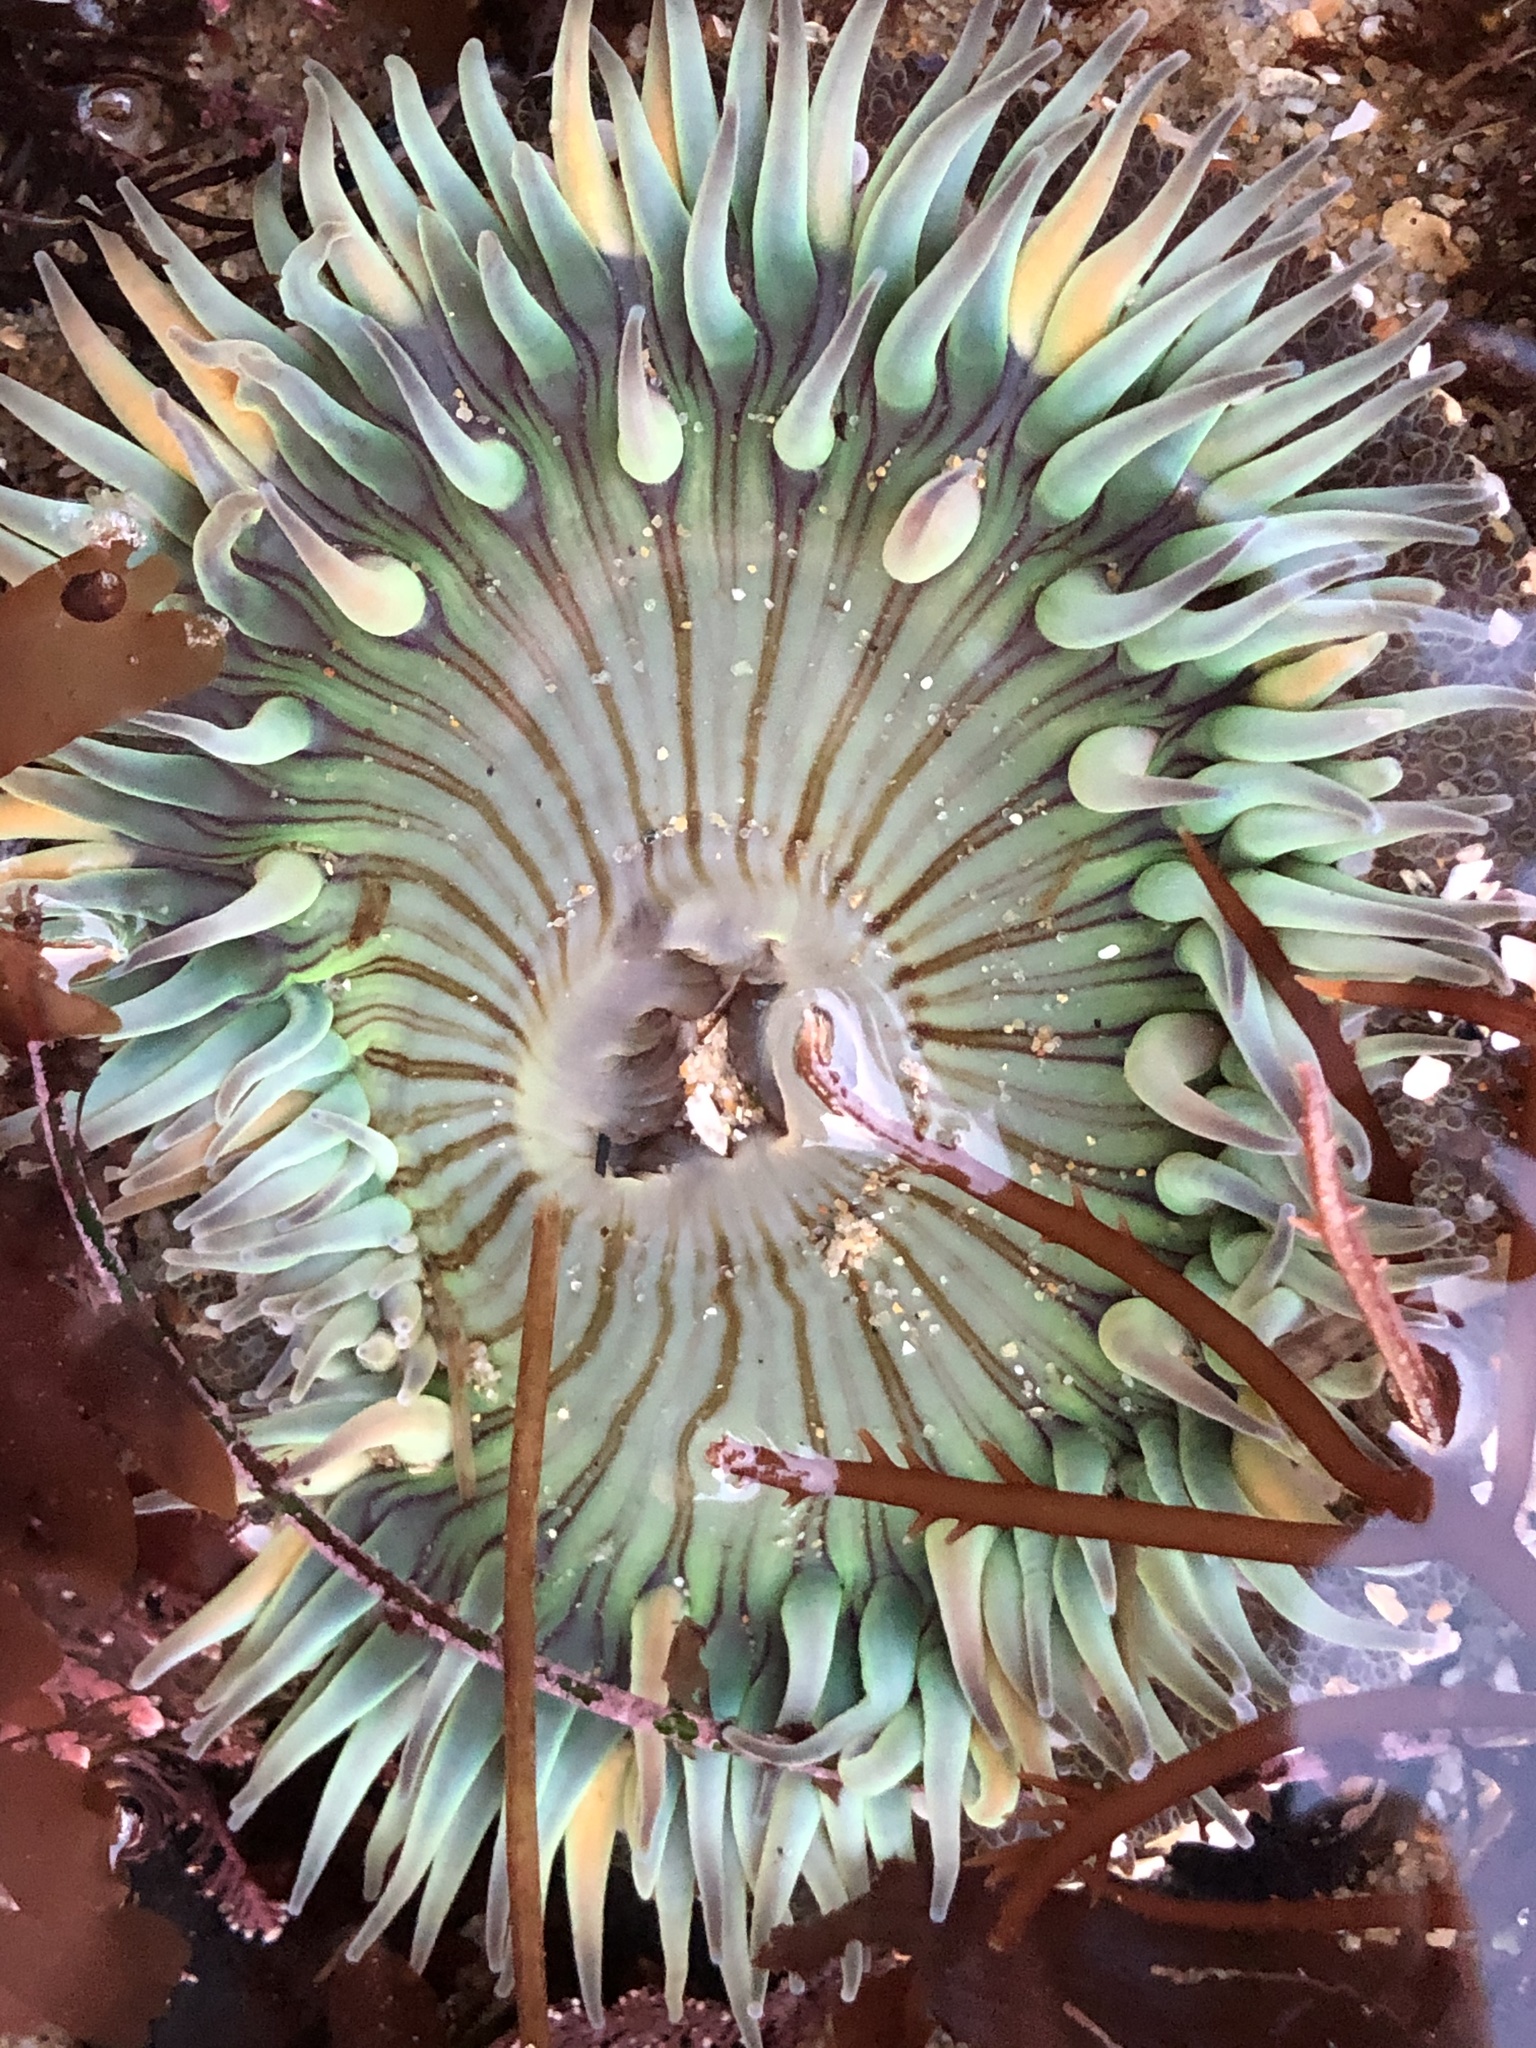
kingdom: Animalia
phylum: Cnidaria
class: Anthozoa
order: Actiniaria
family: Actiniidae
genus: Anthopleura
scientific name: Anthopleura sola
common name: Sun anemone
